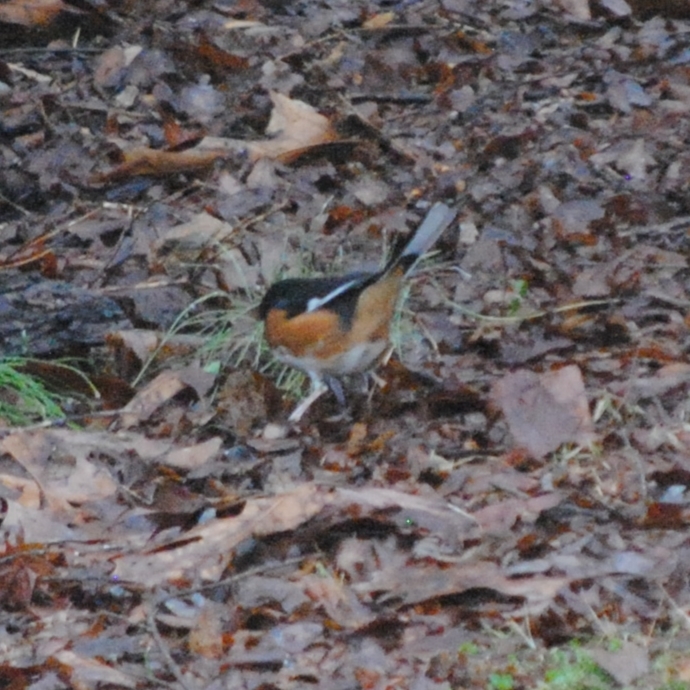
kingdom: Animalia
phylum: Chordata
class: Aves
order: Passeriformes
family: Passerellidae
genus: Pipilo
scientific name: Pipilo erythrophthalmus
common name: Eastern towhee
